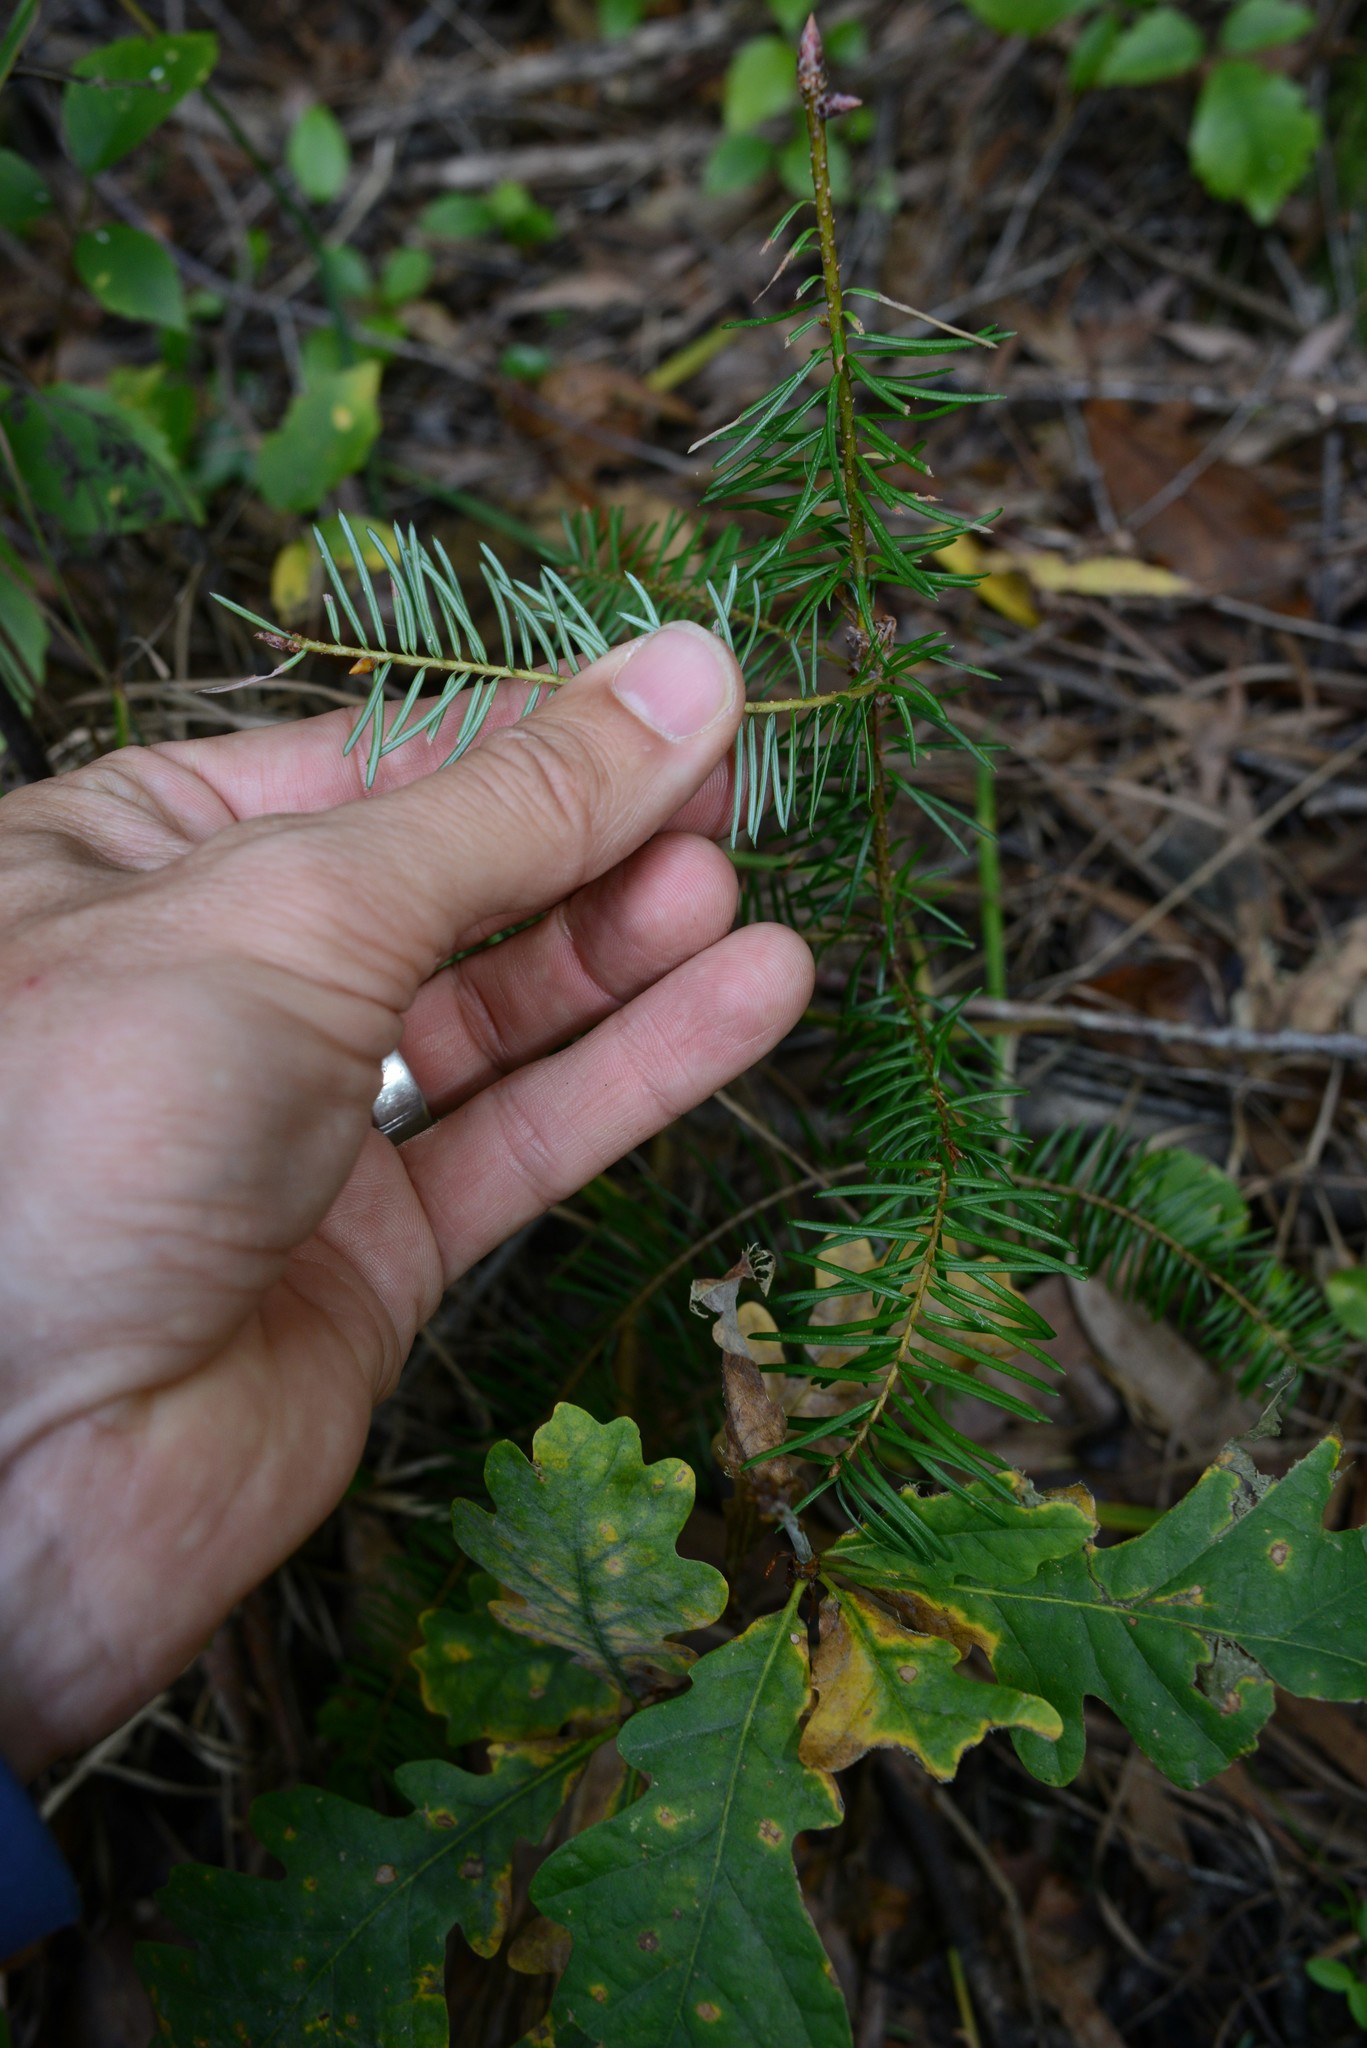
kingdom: Plantae
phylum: Tracheophyta
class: Pinopsida
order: Pinales
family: Pinaceae
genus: Pseudotsuga
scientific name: Pseudotsuga menziesii
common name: Douglas fir
